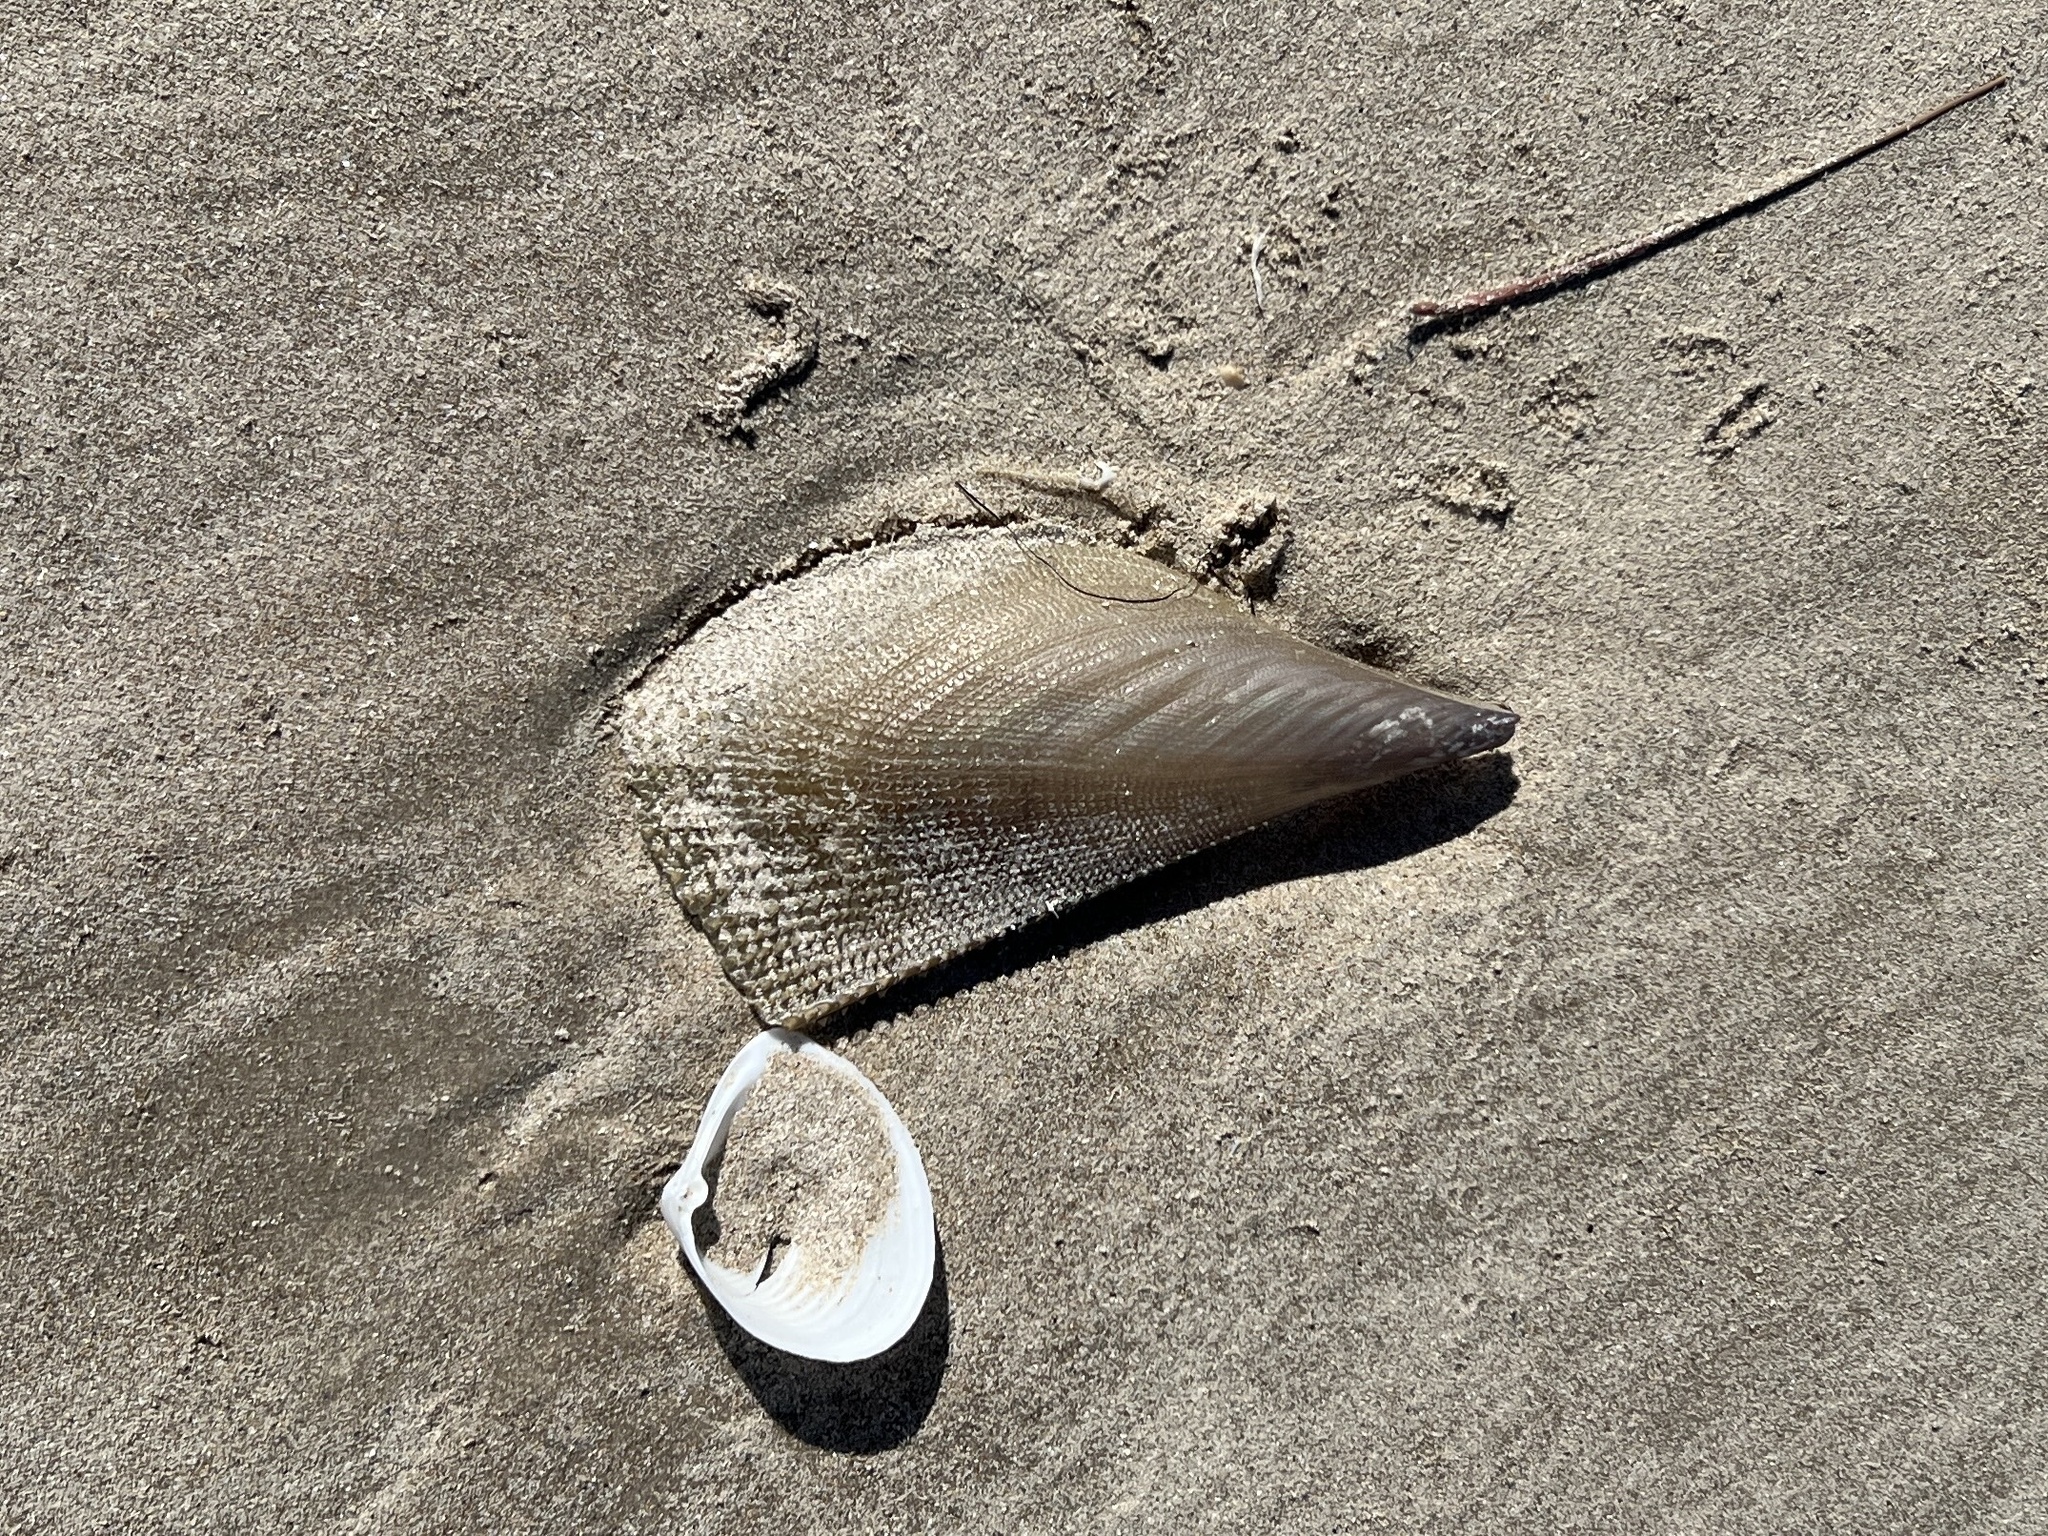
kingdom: Animalia
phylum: Mollusca
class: Bivalvia
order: Ostreida
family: Pinnidae
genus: Atrina
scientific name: Atrina serrata
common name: Saw-toothed penshell
